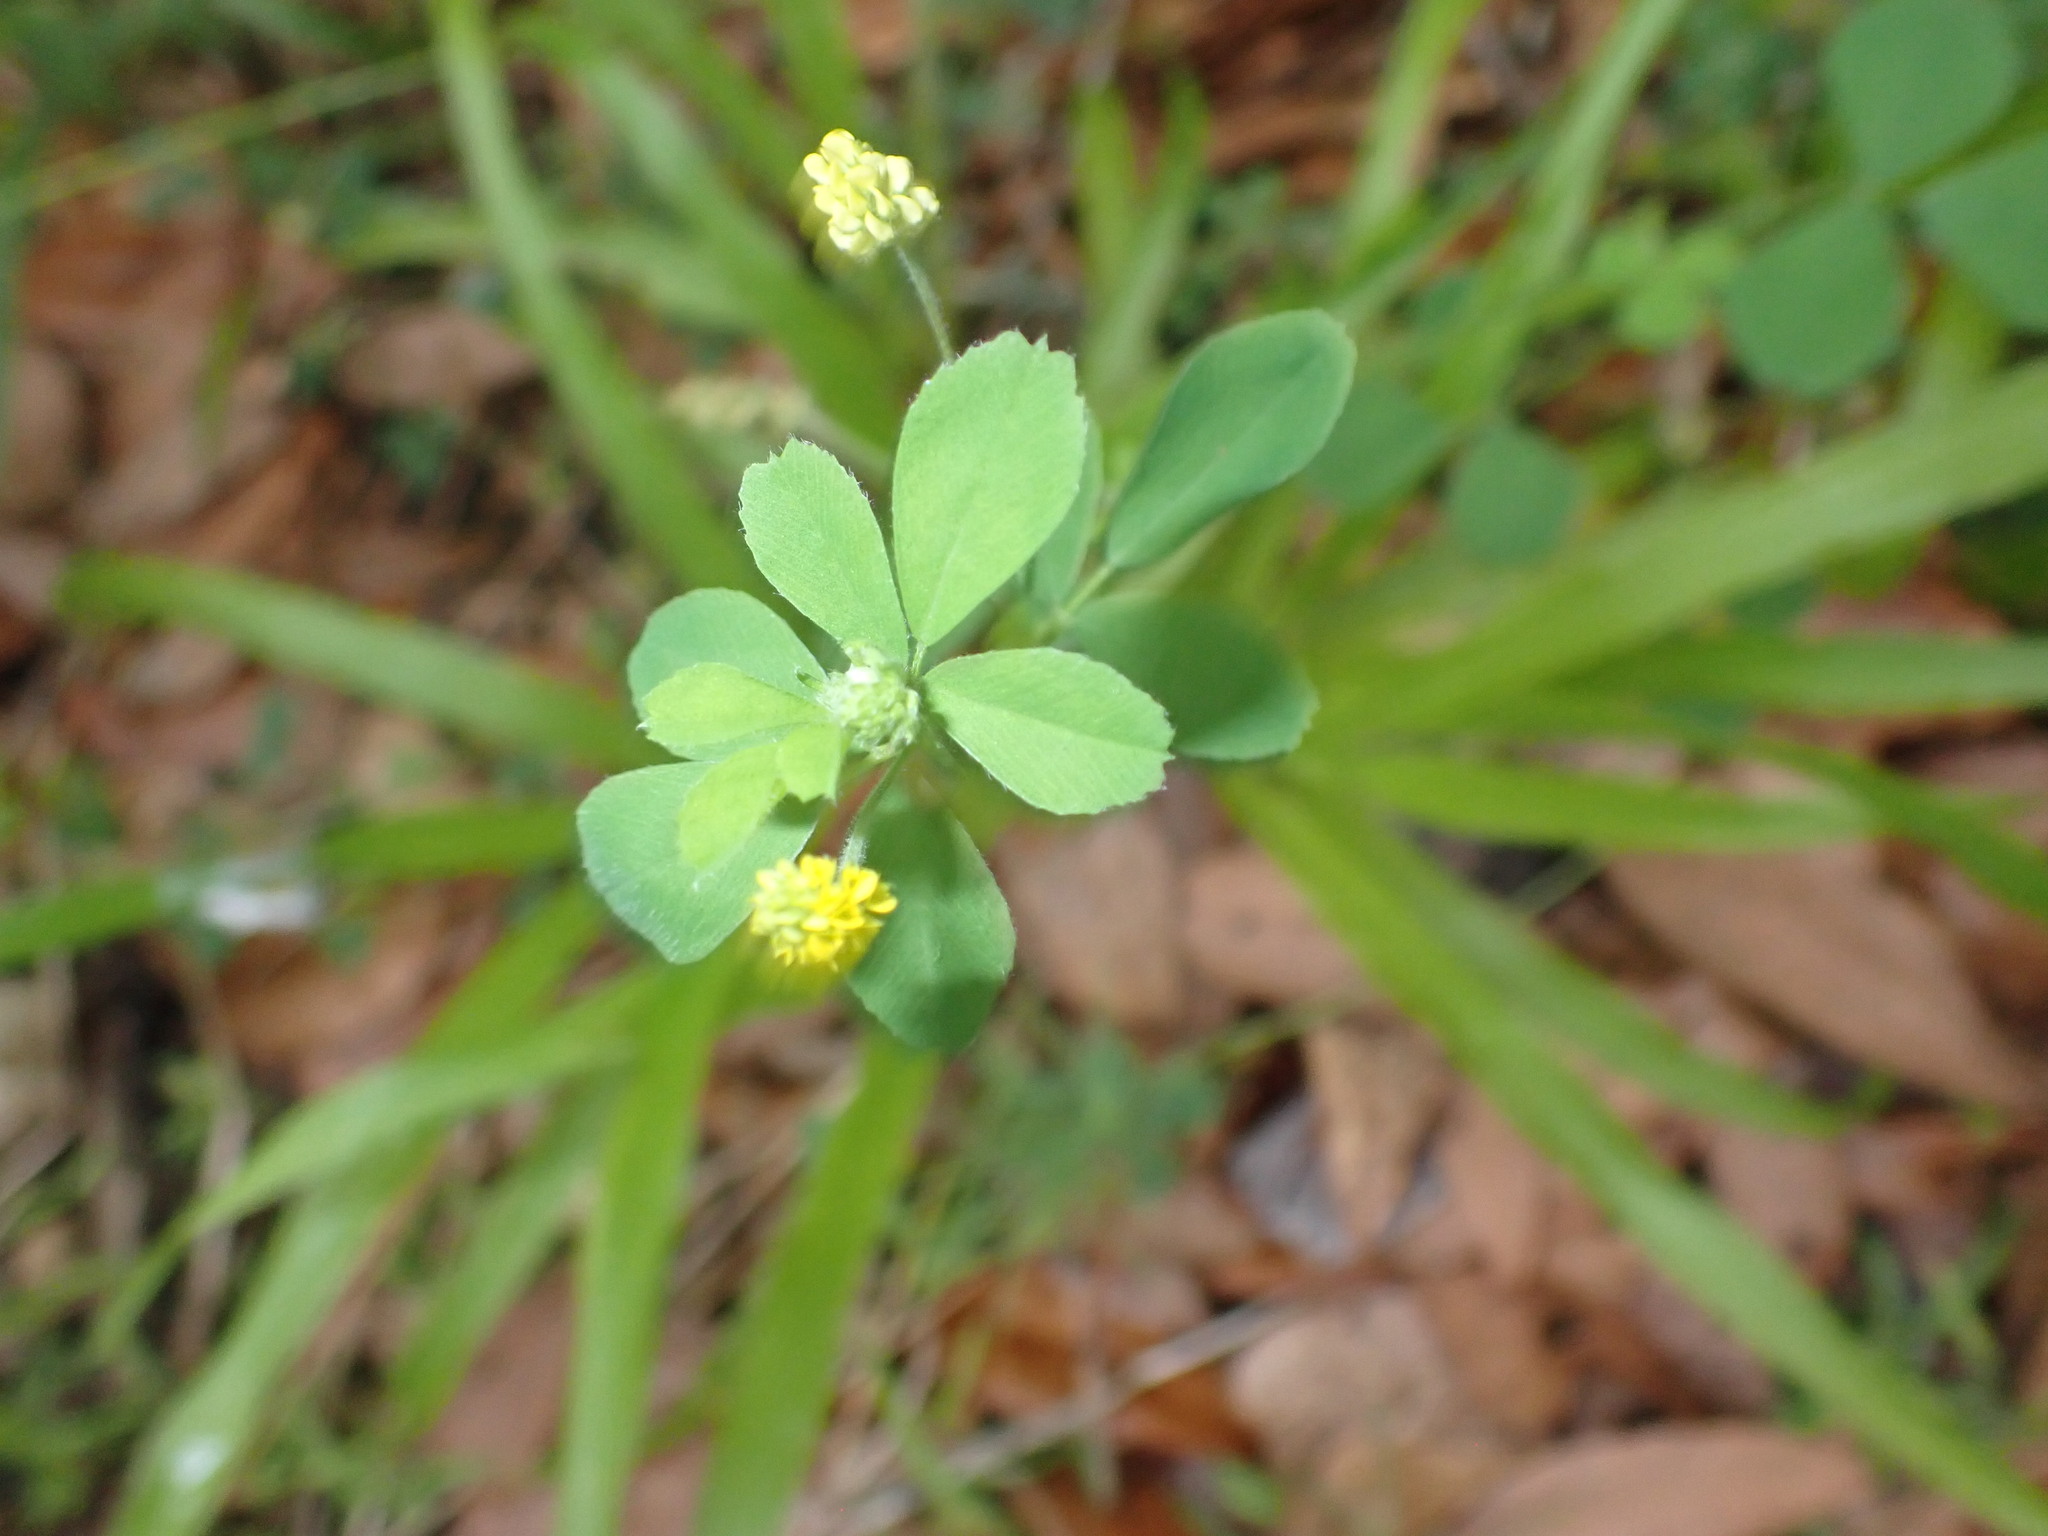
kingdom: Plantae
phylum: Tracheophyta
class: Magnoliopsida
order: Fabales
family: Fabaceae
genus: Medicago
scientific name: Medicago lupulina
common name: Black medick
